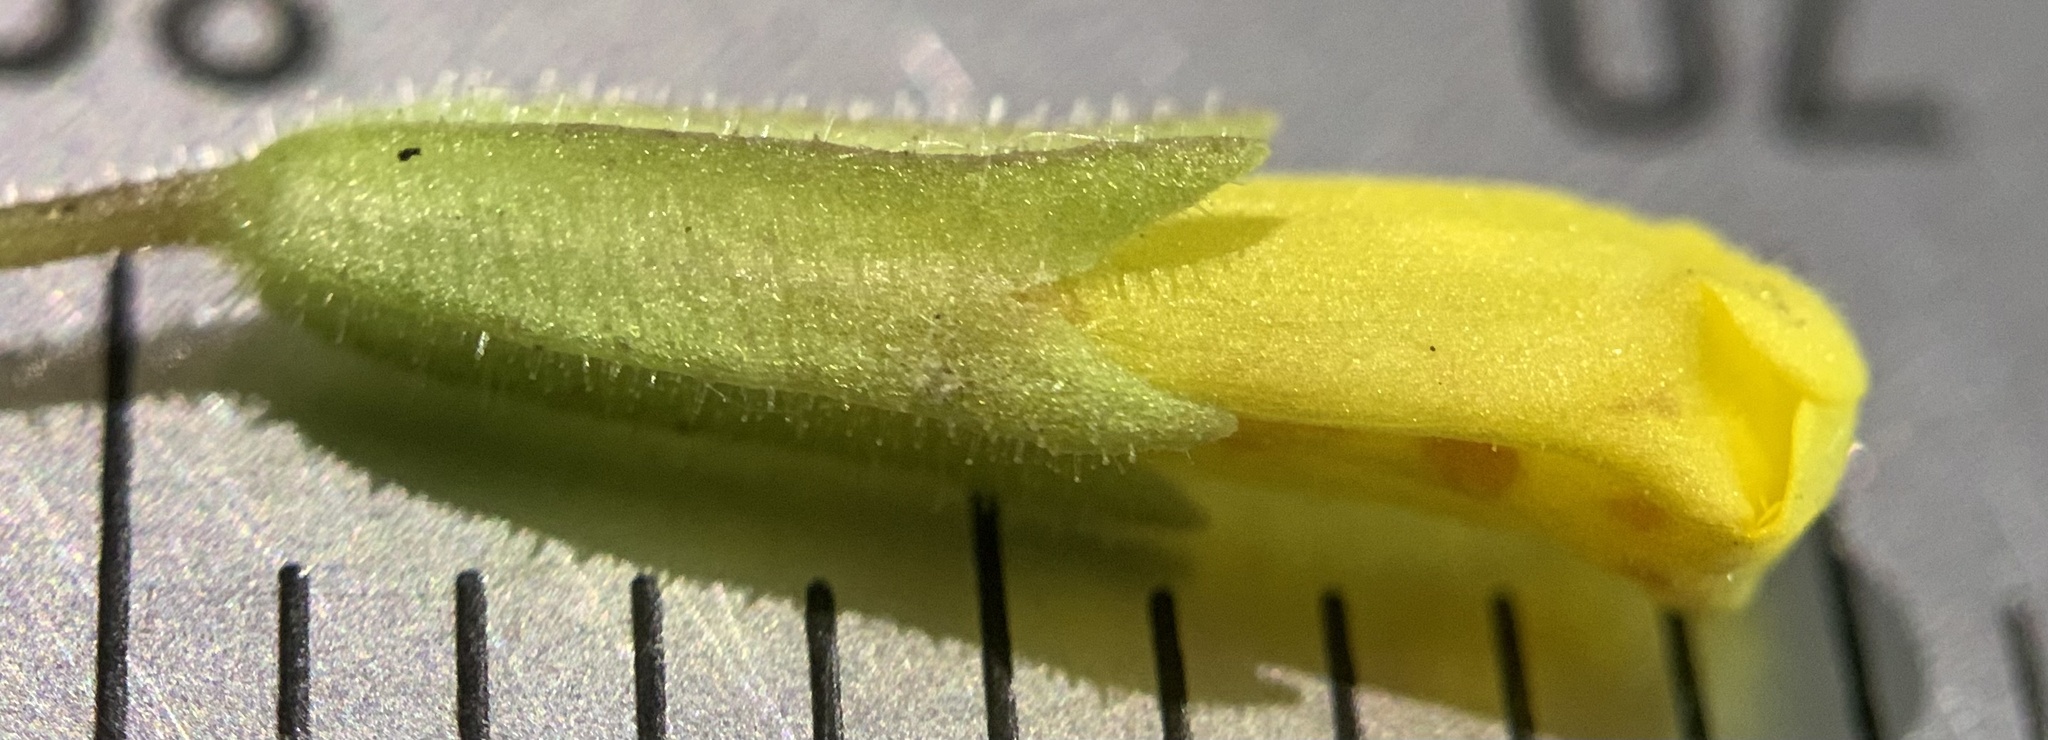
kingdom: Plantae
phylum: Tracheophyta
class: Magnoliopsida
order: Lamiales
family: Phrymaceae
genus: Erythranthe
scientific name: Erythranthe floribunda
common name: Floriferous monkeyflower
